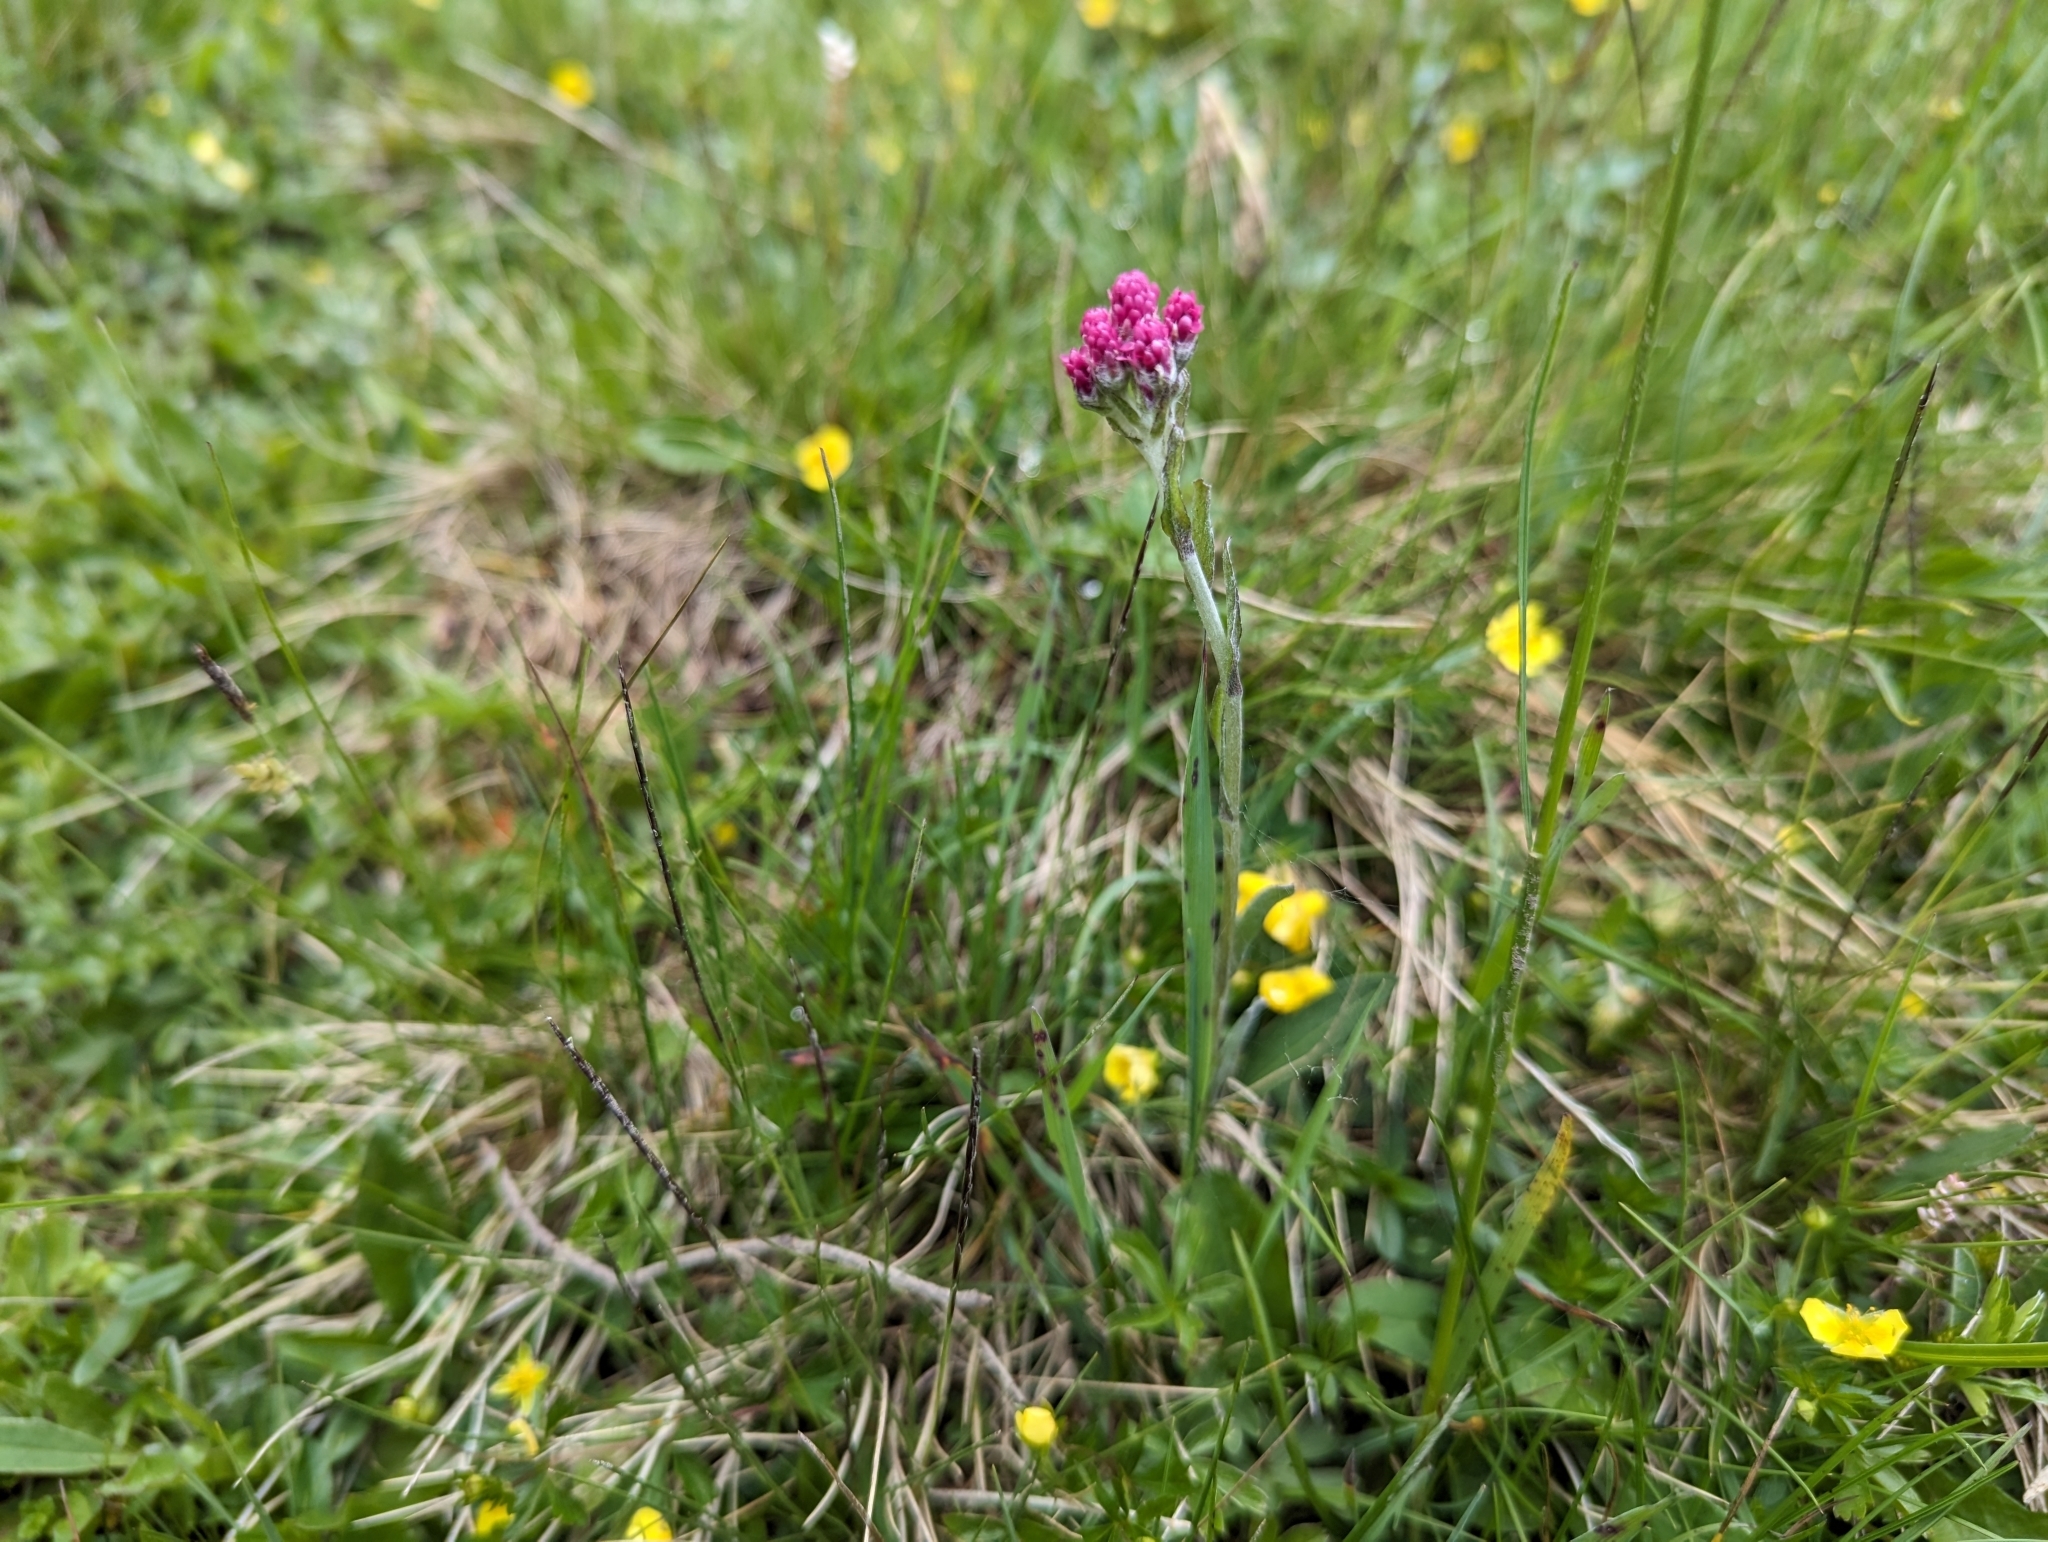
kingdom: Plantae
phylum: Tracheophyta
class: Magnoliopsida
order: Asterales
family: Asteraceae
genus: Antennaria
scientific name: Antennaria dioica
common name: Mountain everlasting
